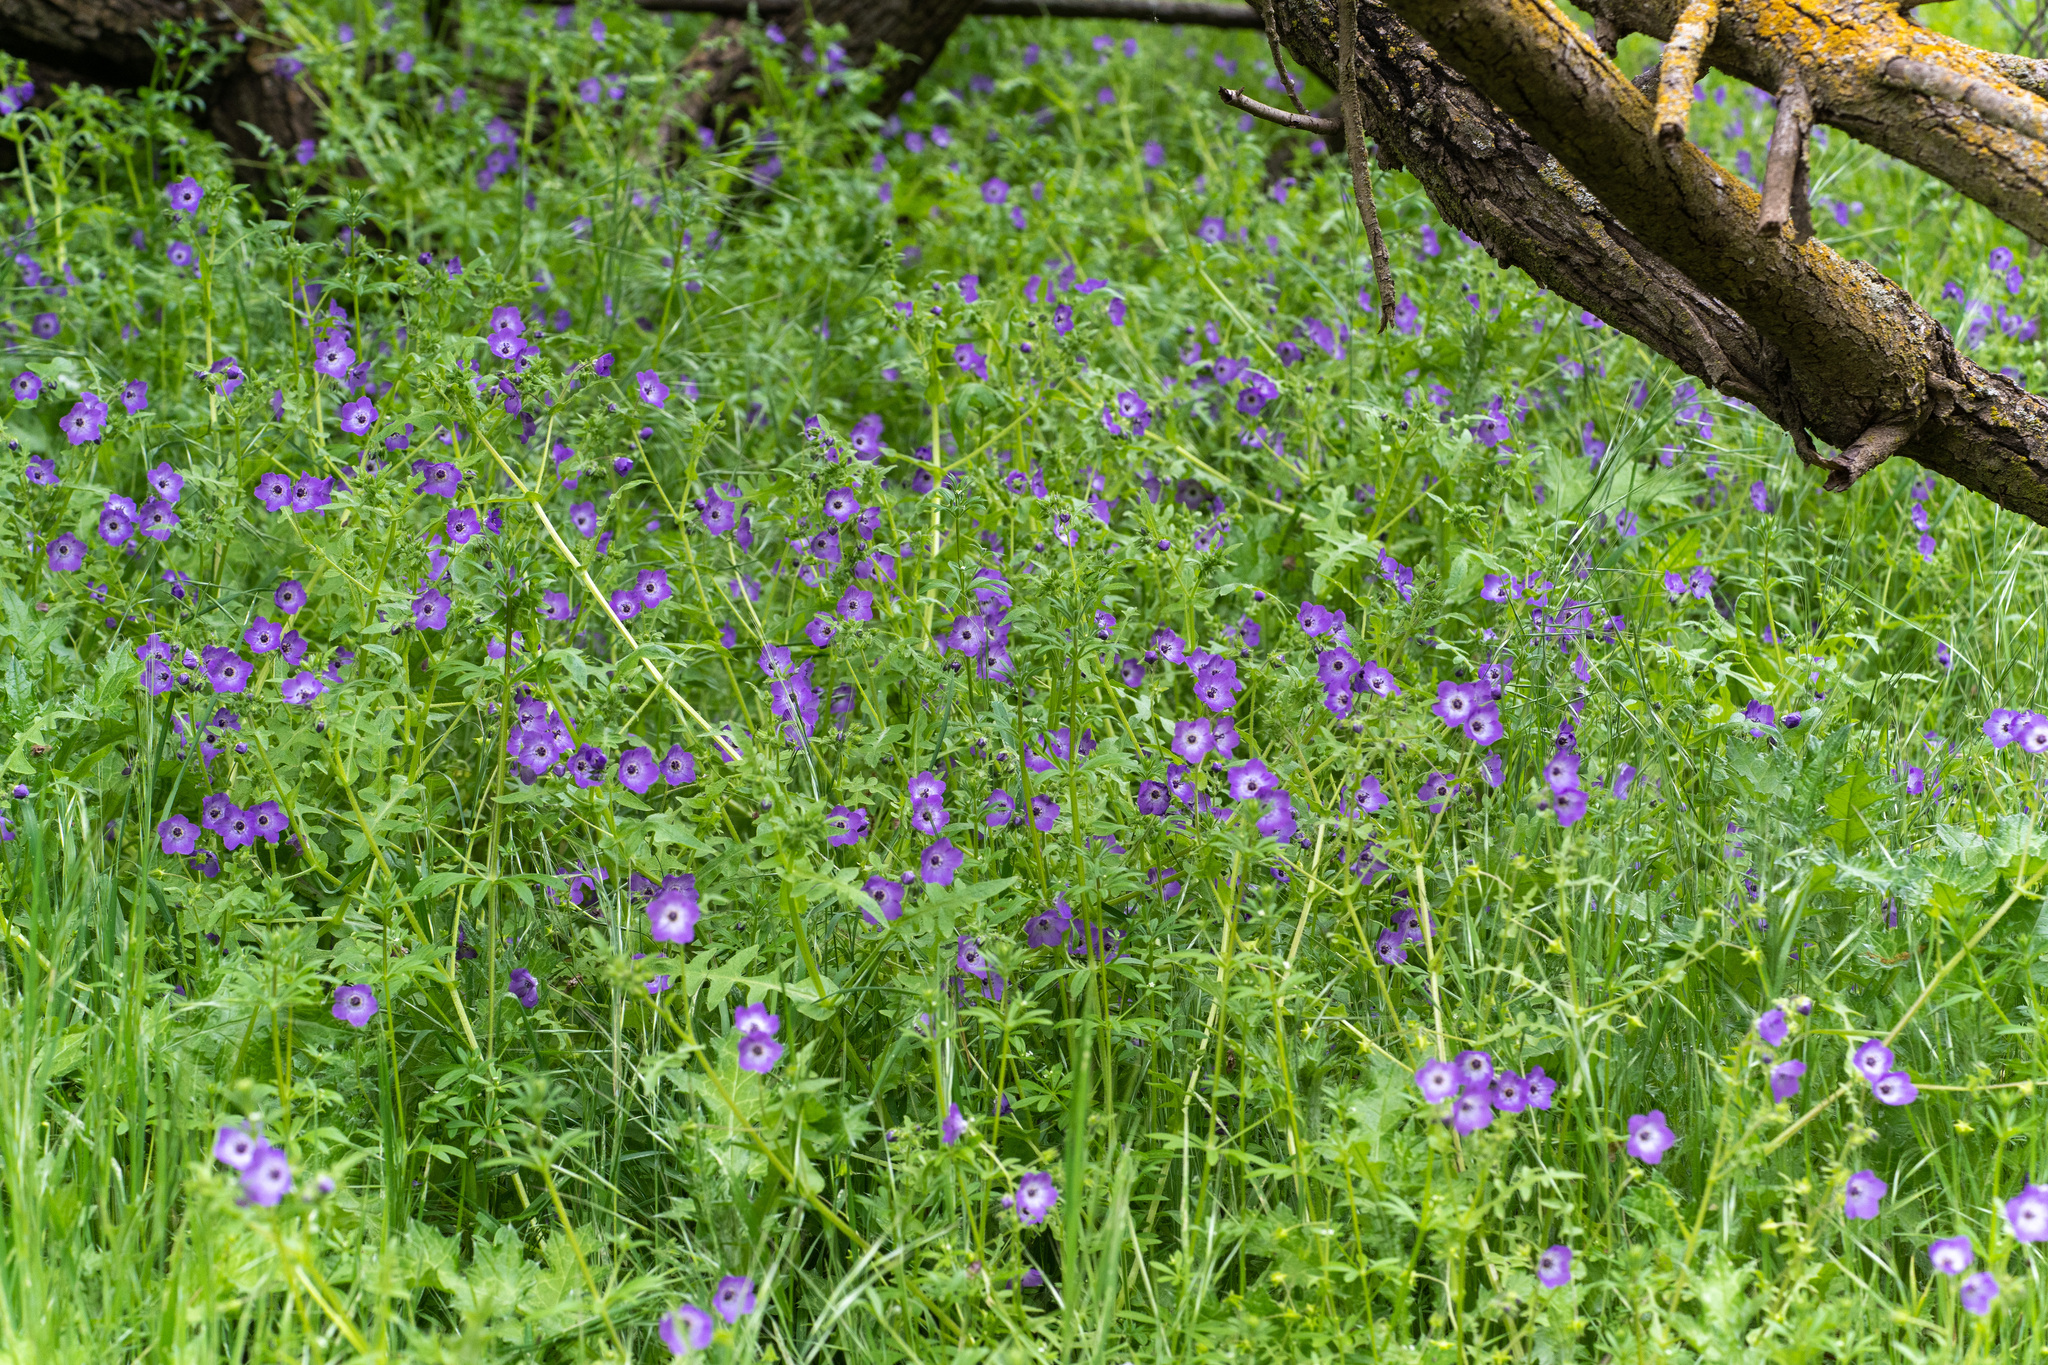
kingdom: Plantae
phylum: Tracheophyta
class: Magnoliopsida
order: Boraginales
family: Hydrophyllaceae
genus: Pholistoma
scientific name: Pholistoma auritum
